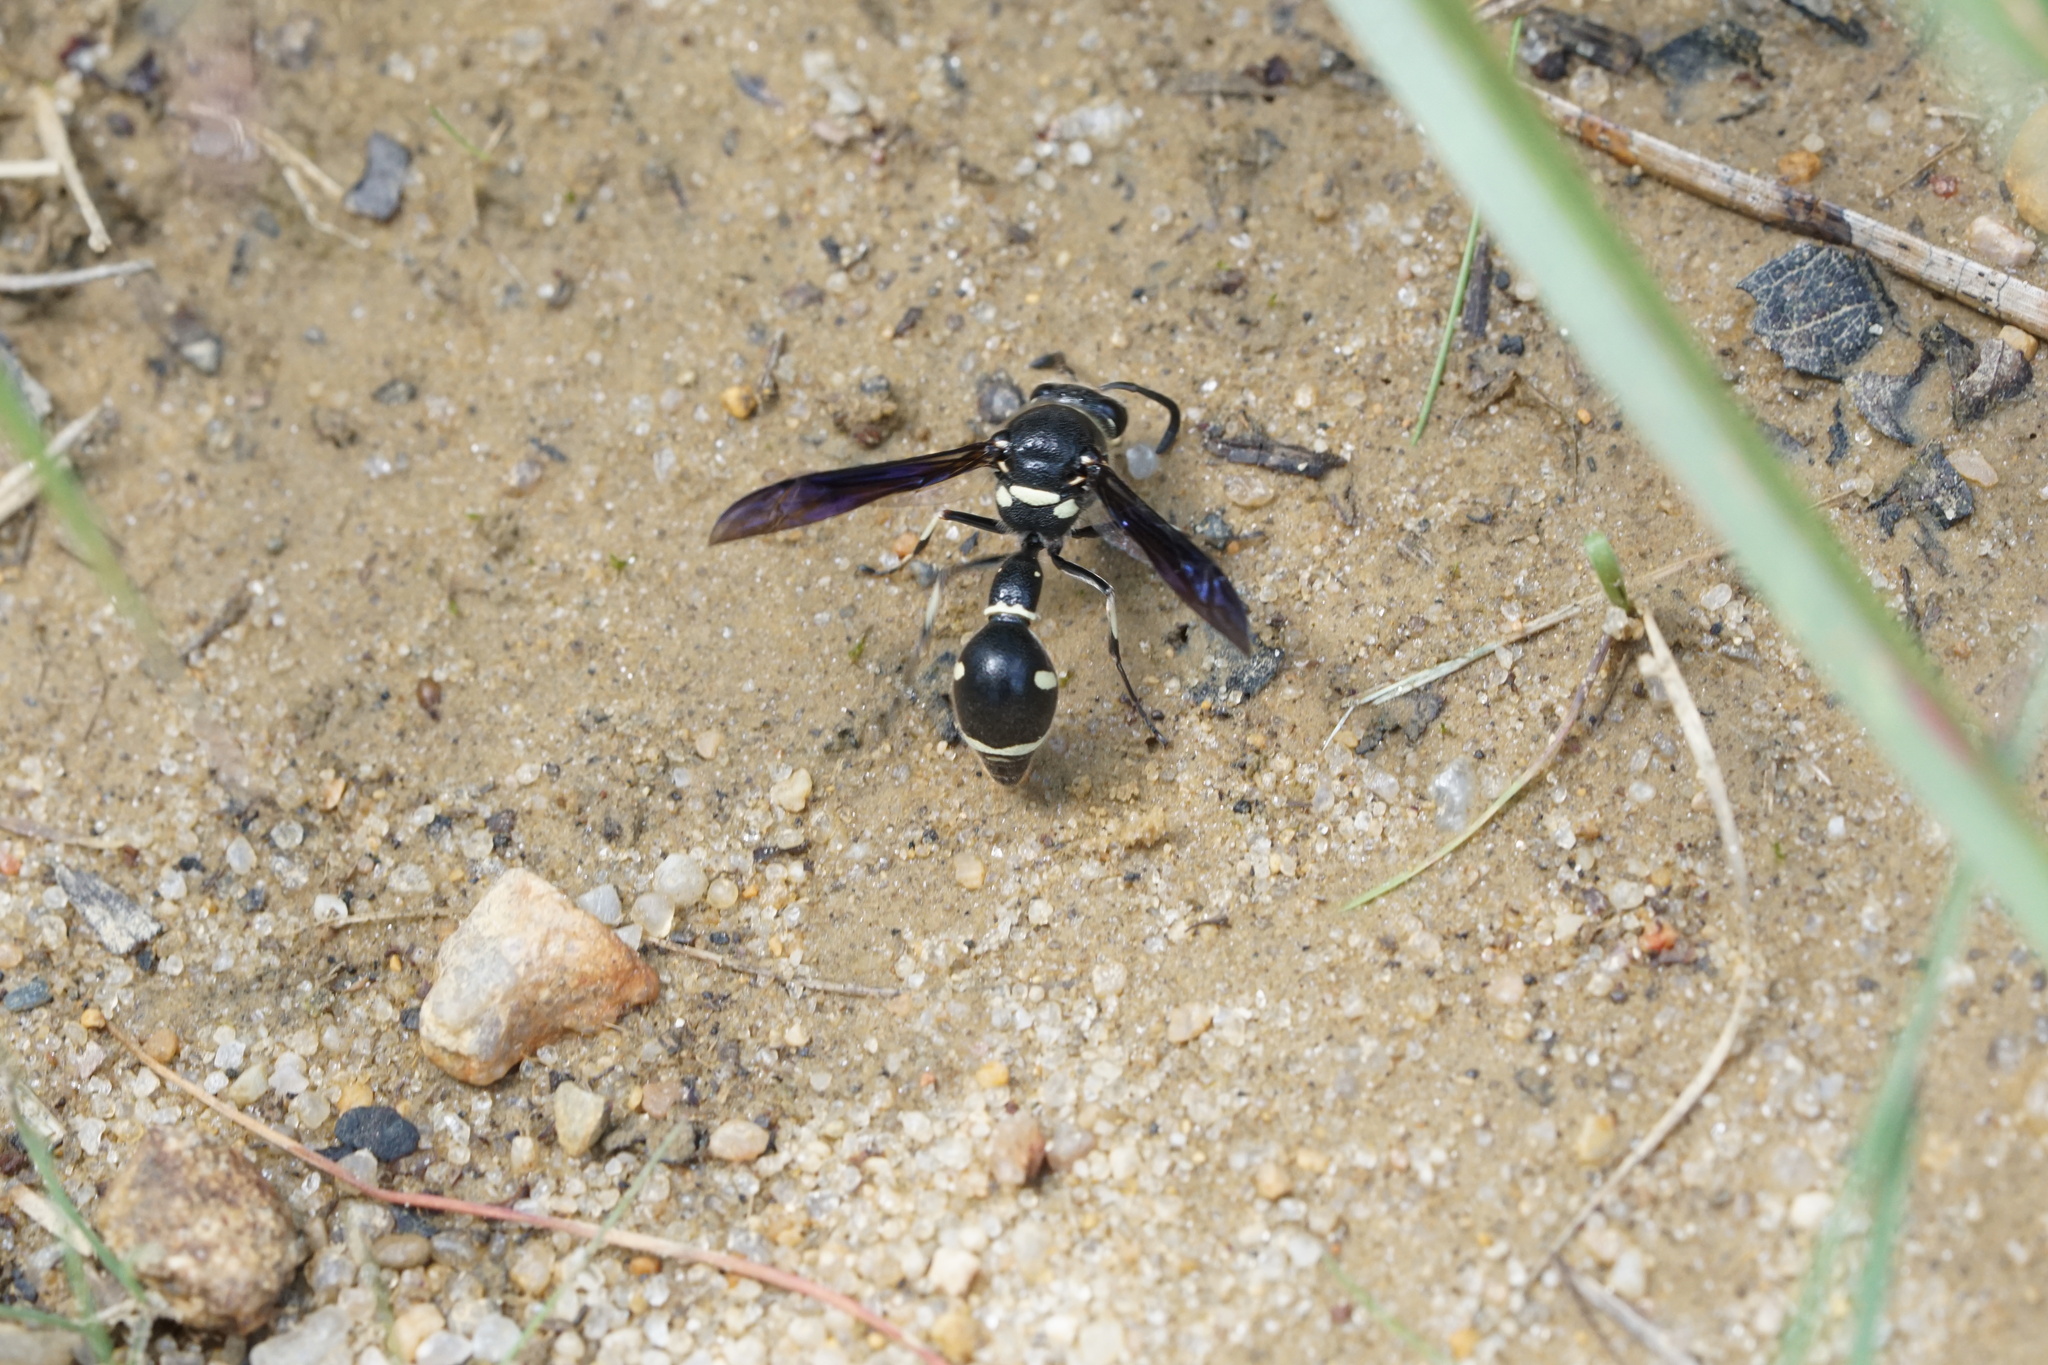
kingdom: Animalia
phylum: Arthropoda
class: Insecta
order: Hymenoptera
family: Vespidae
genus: Eumenes
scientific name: Eumenes fraternus
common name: Fraternal potter wasp
